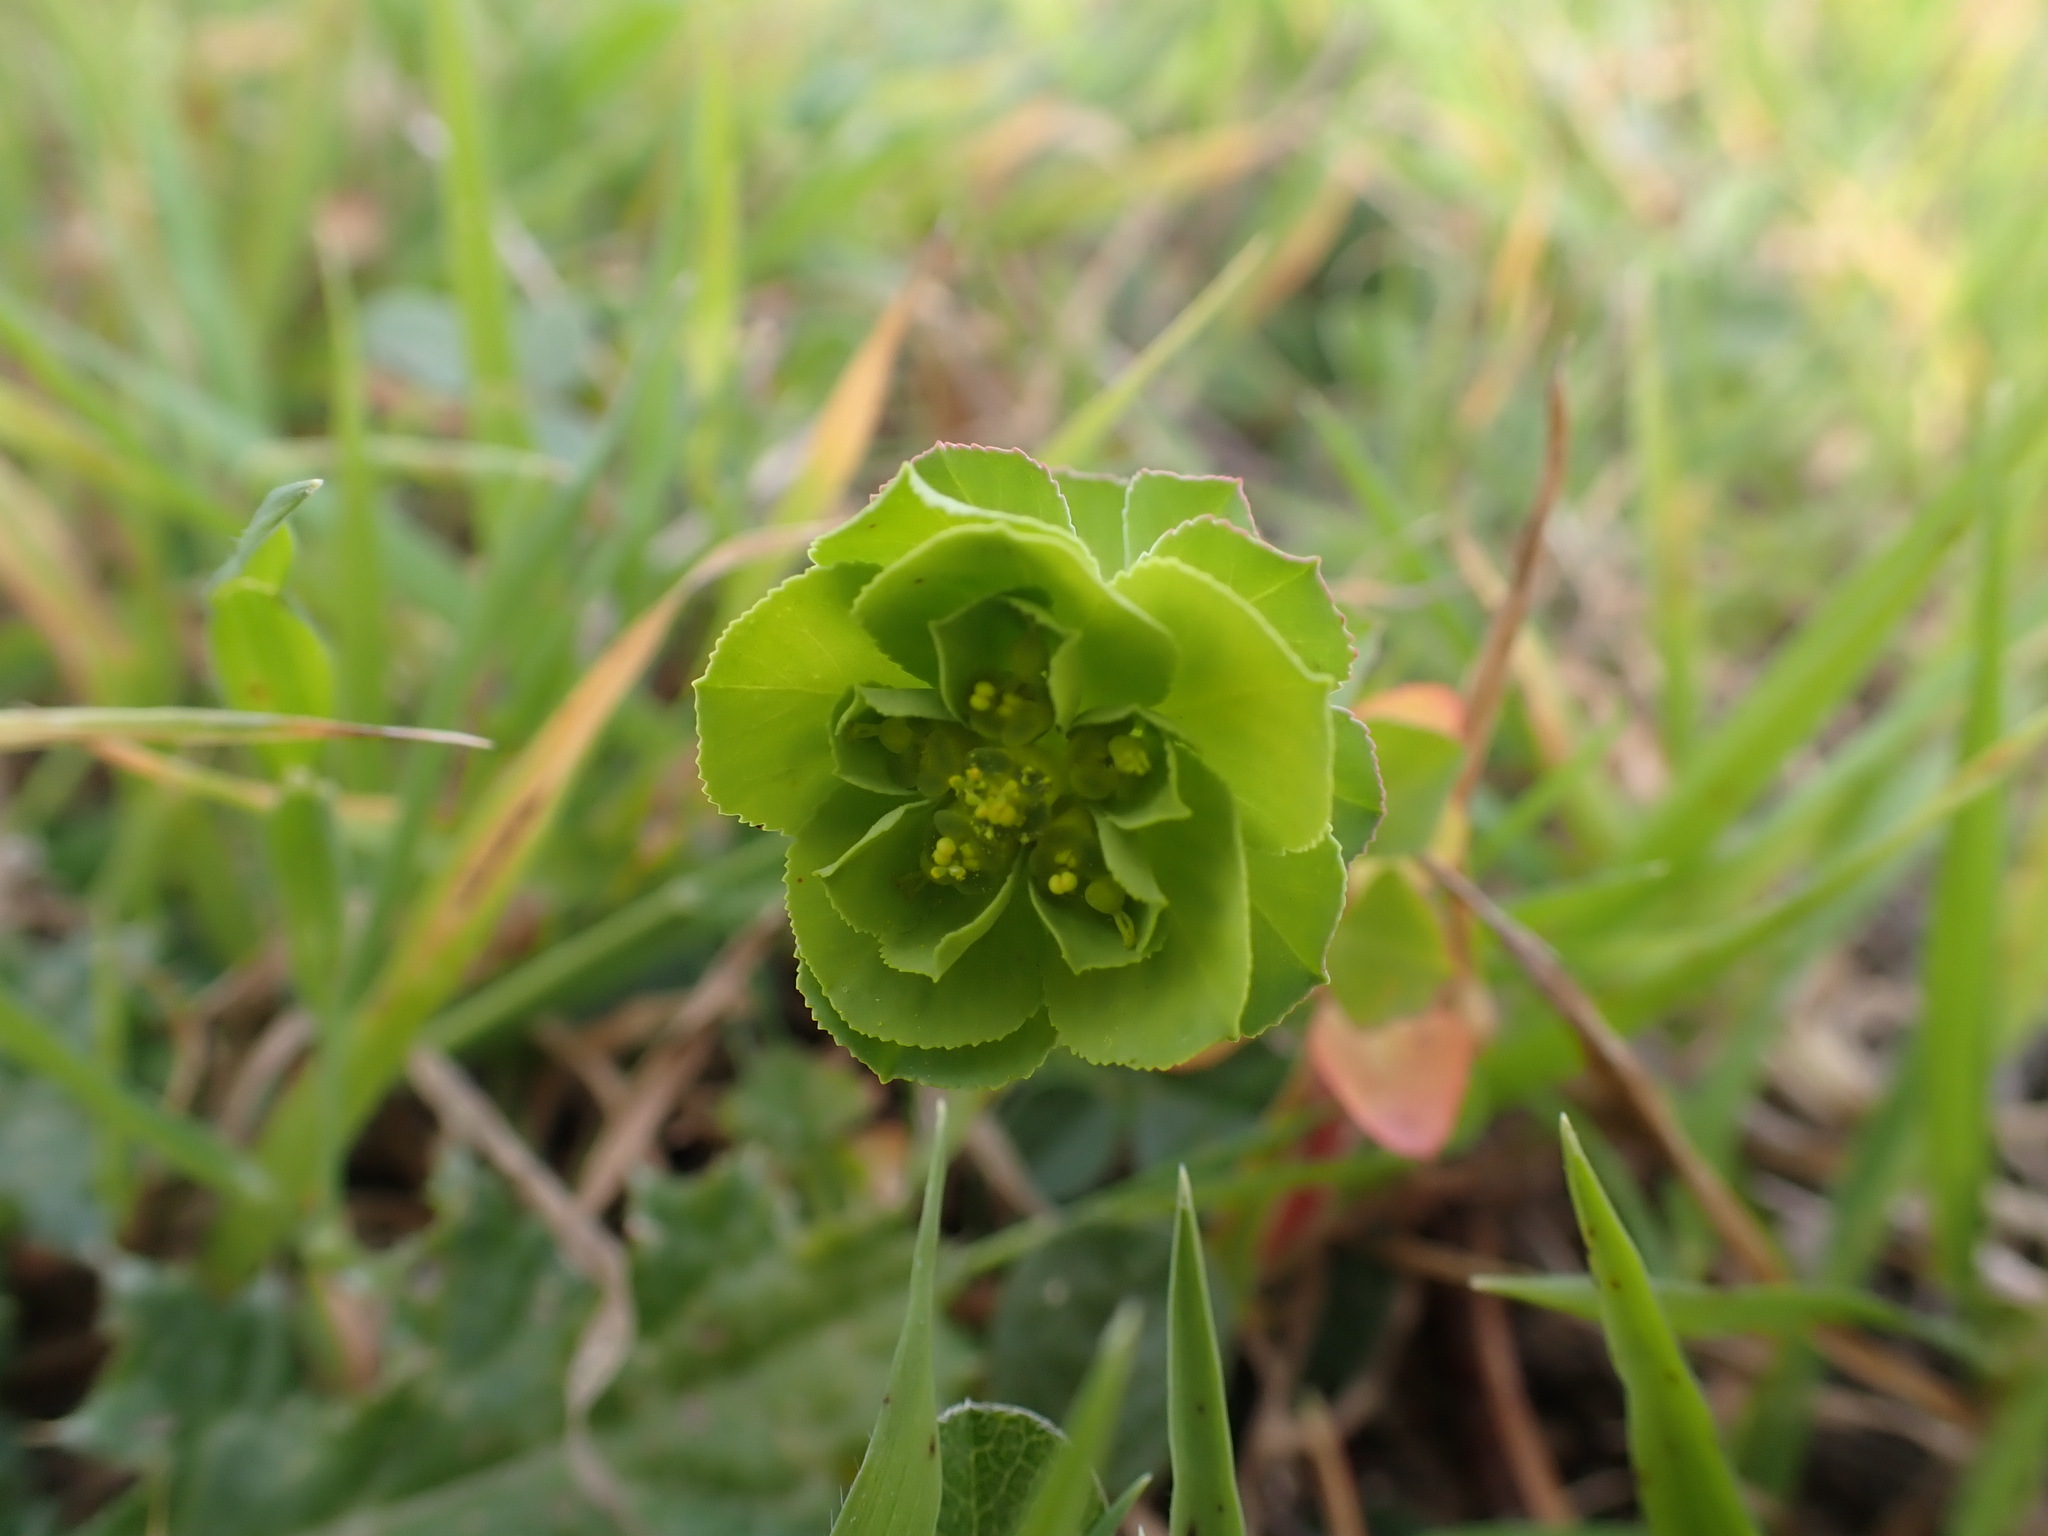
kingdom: Plantae
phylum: Tracheophyta
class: Magnoliopsida
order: Malpighiales
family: Euphorbiaceae
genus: Euphorbia
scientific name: Euphorbia helioscopia
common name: Sun spurge
